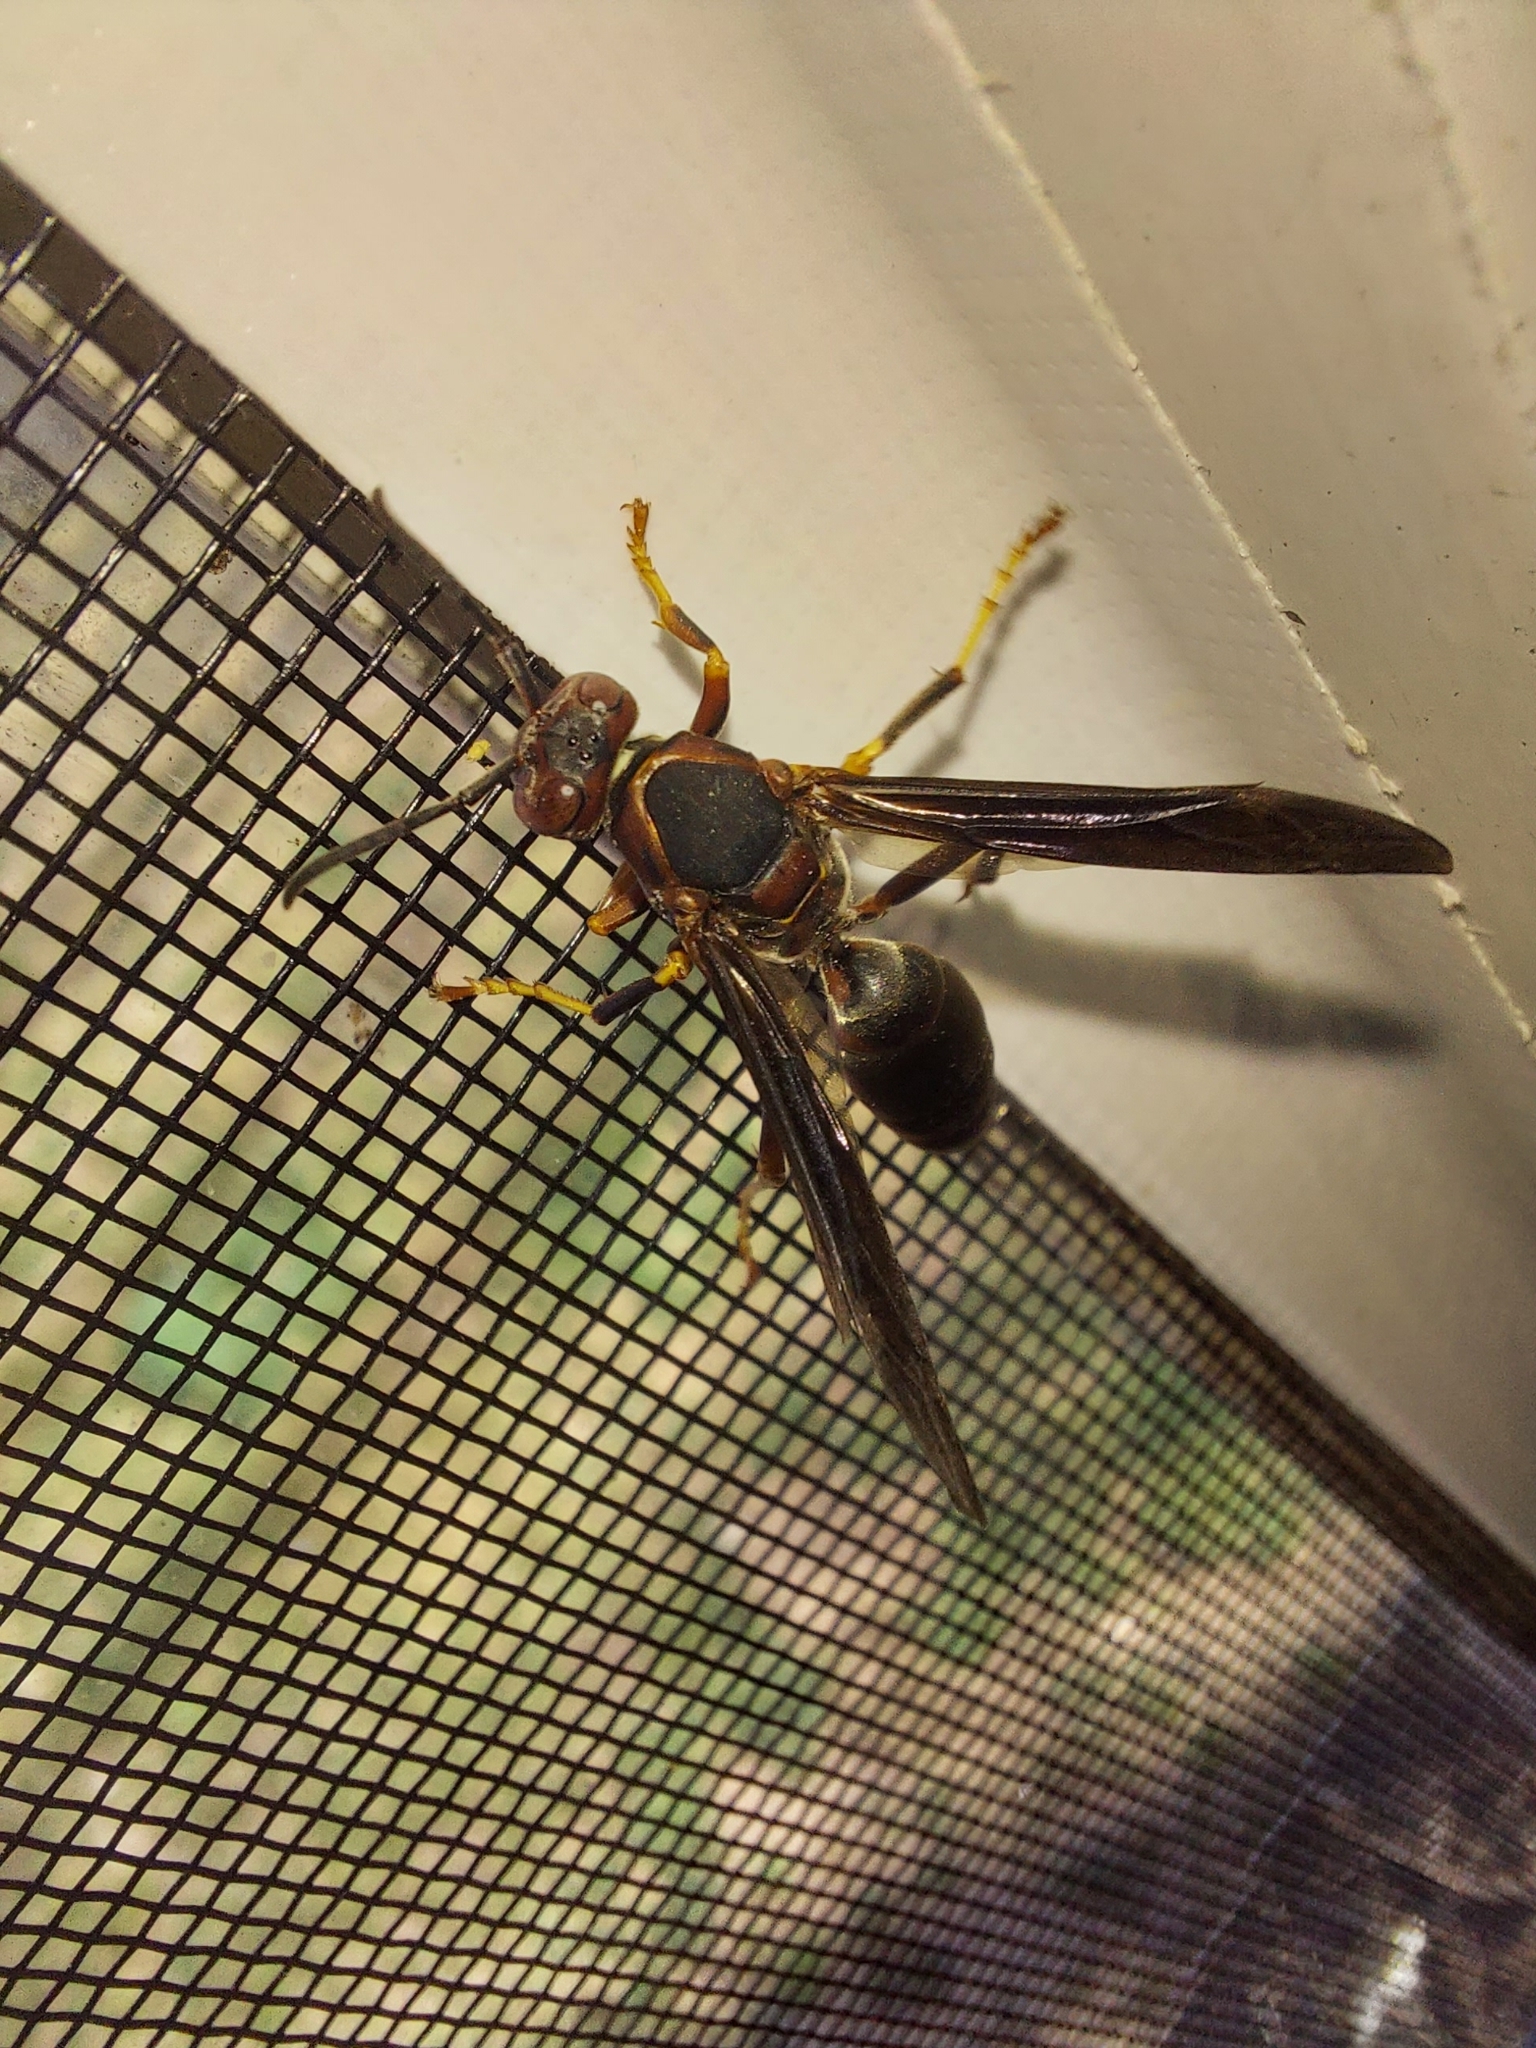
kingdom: Animalia
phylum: Arthropoda
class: Insecta
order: Hymenoptera
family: Eumenidae
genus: Polistes
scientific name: Polistes metricus
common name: Metric paper wasp
